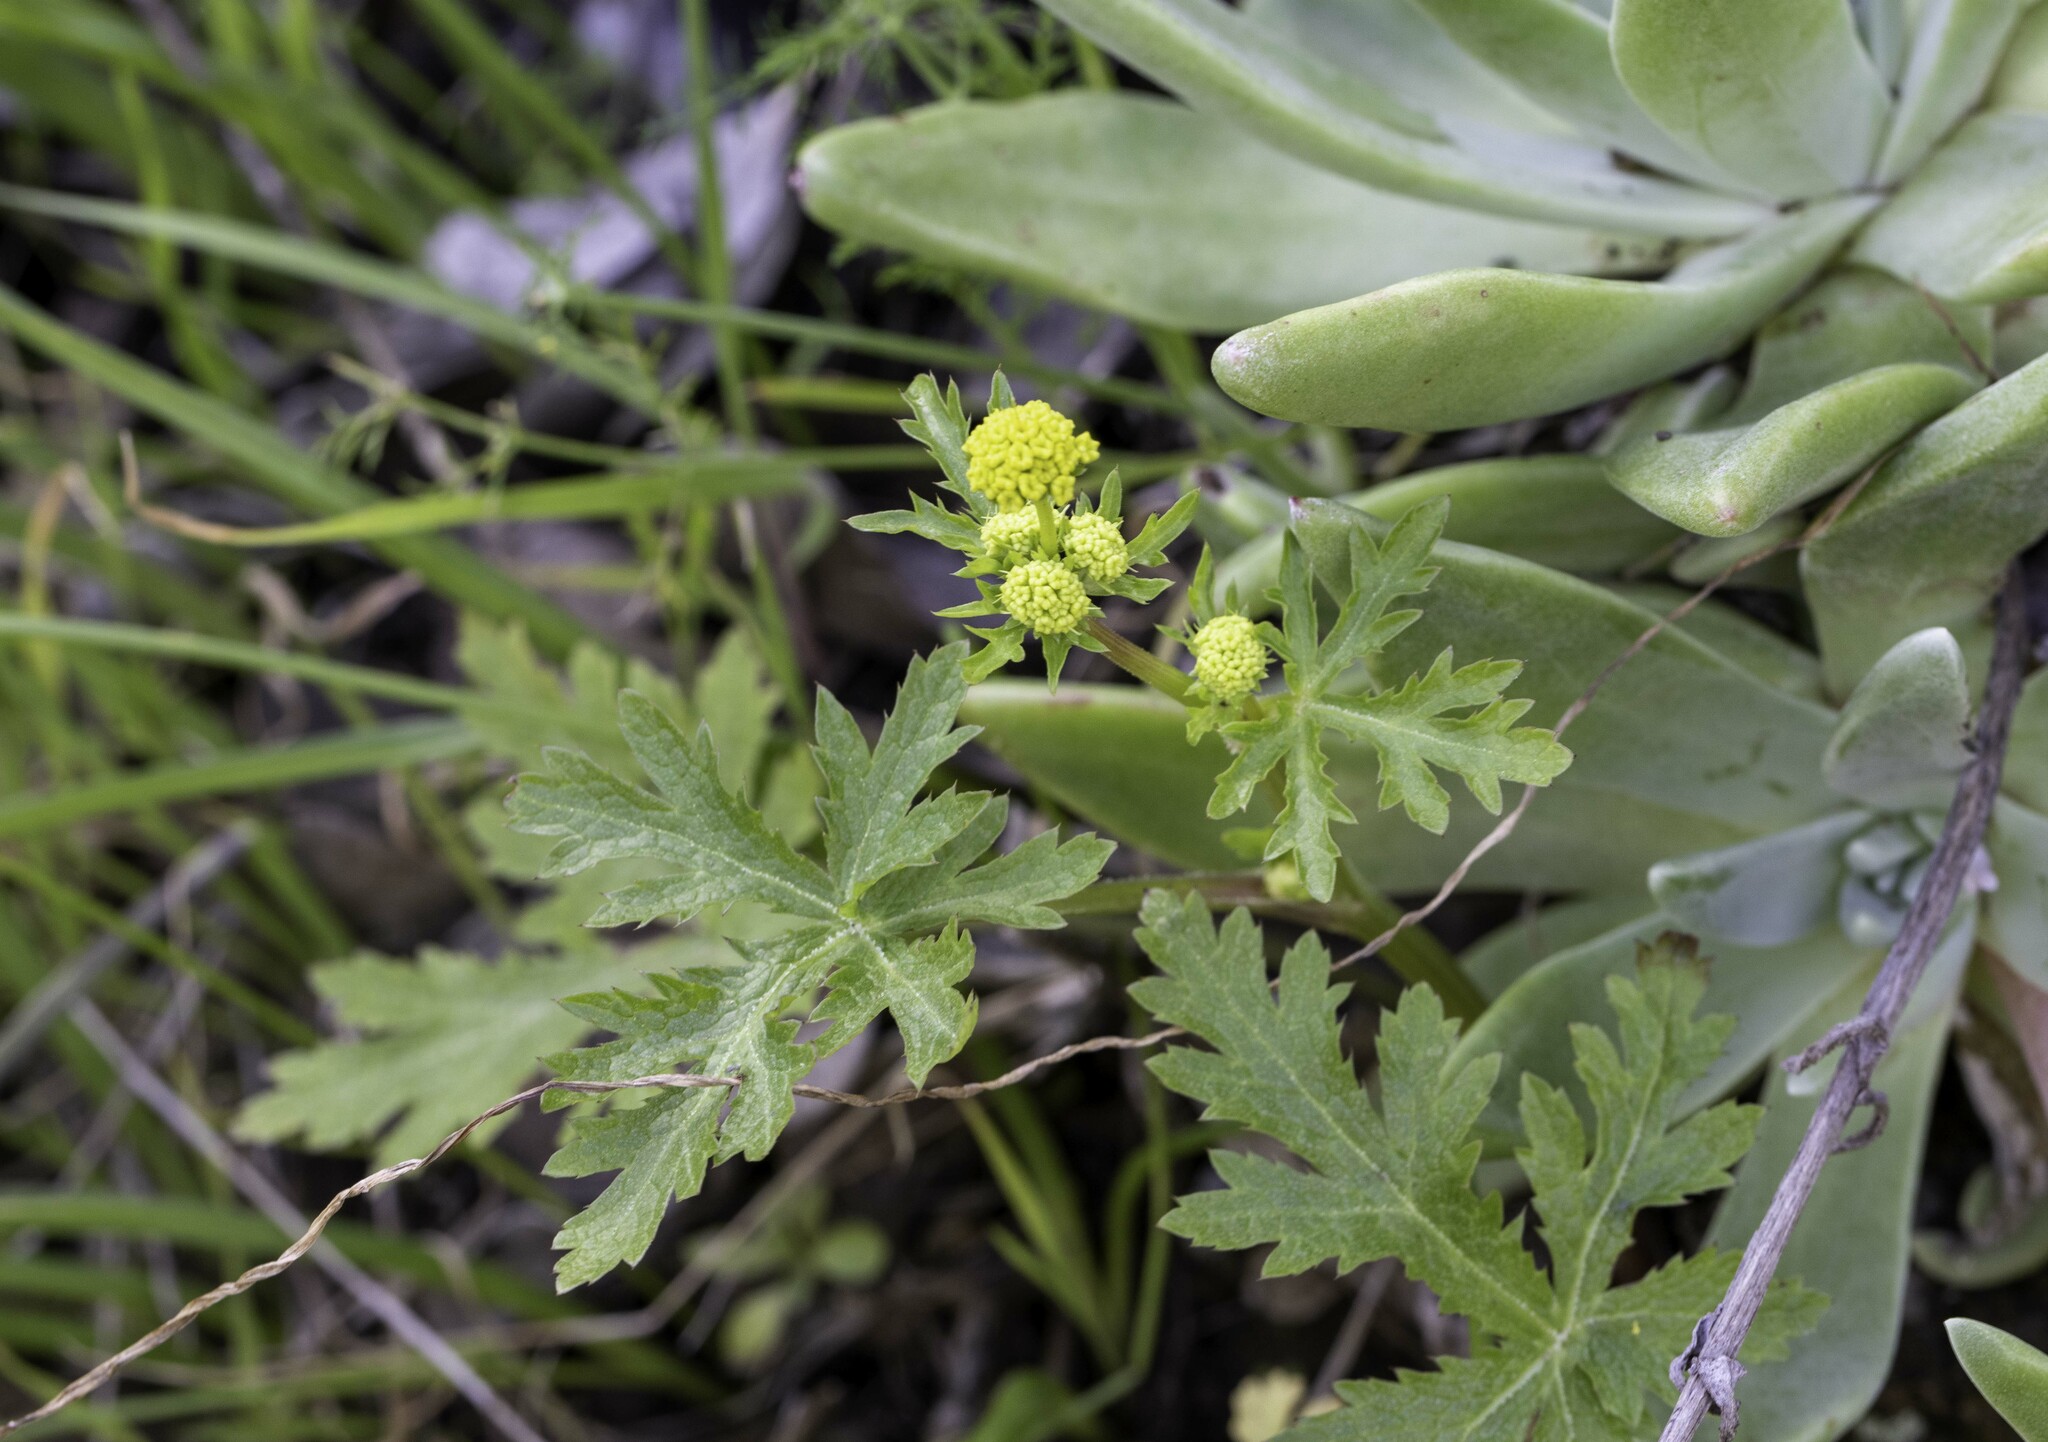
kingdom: Plantae
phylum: Tracheophyta
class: Magnoliopsida
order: Apiales
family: Apiaceae
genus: Sanicula
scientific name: Sanicula arguta
